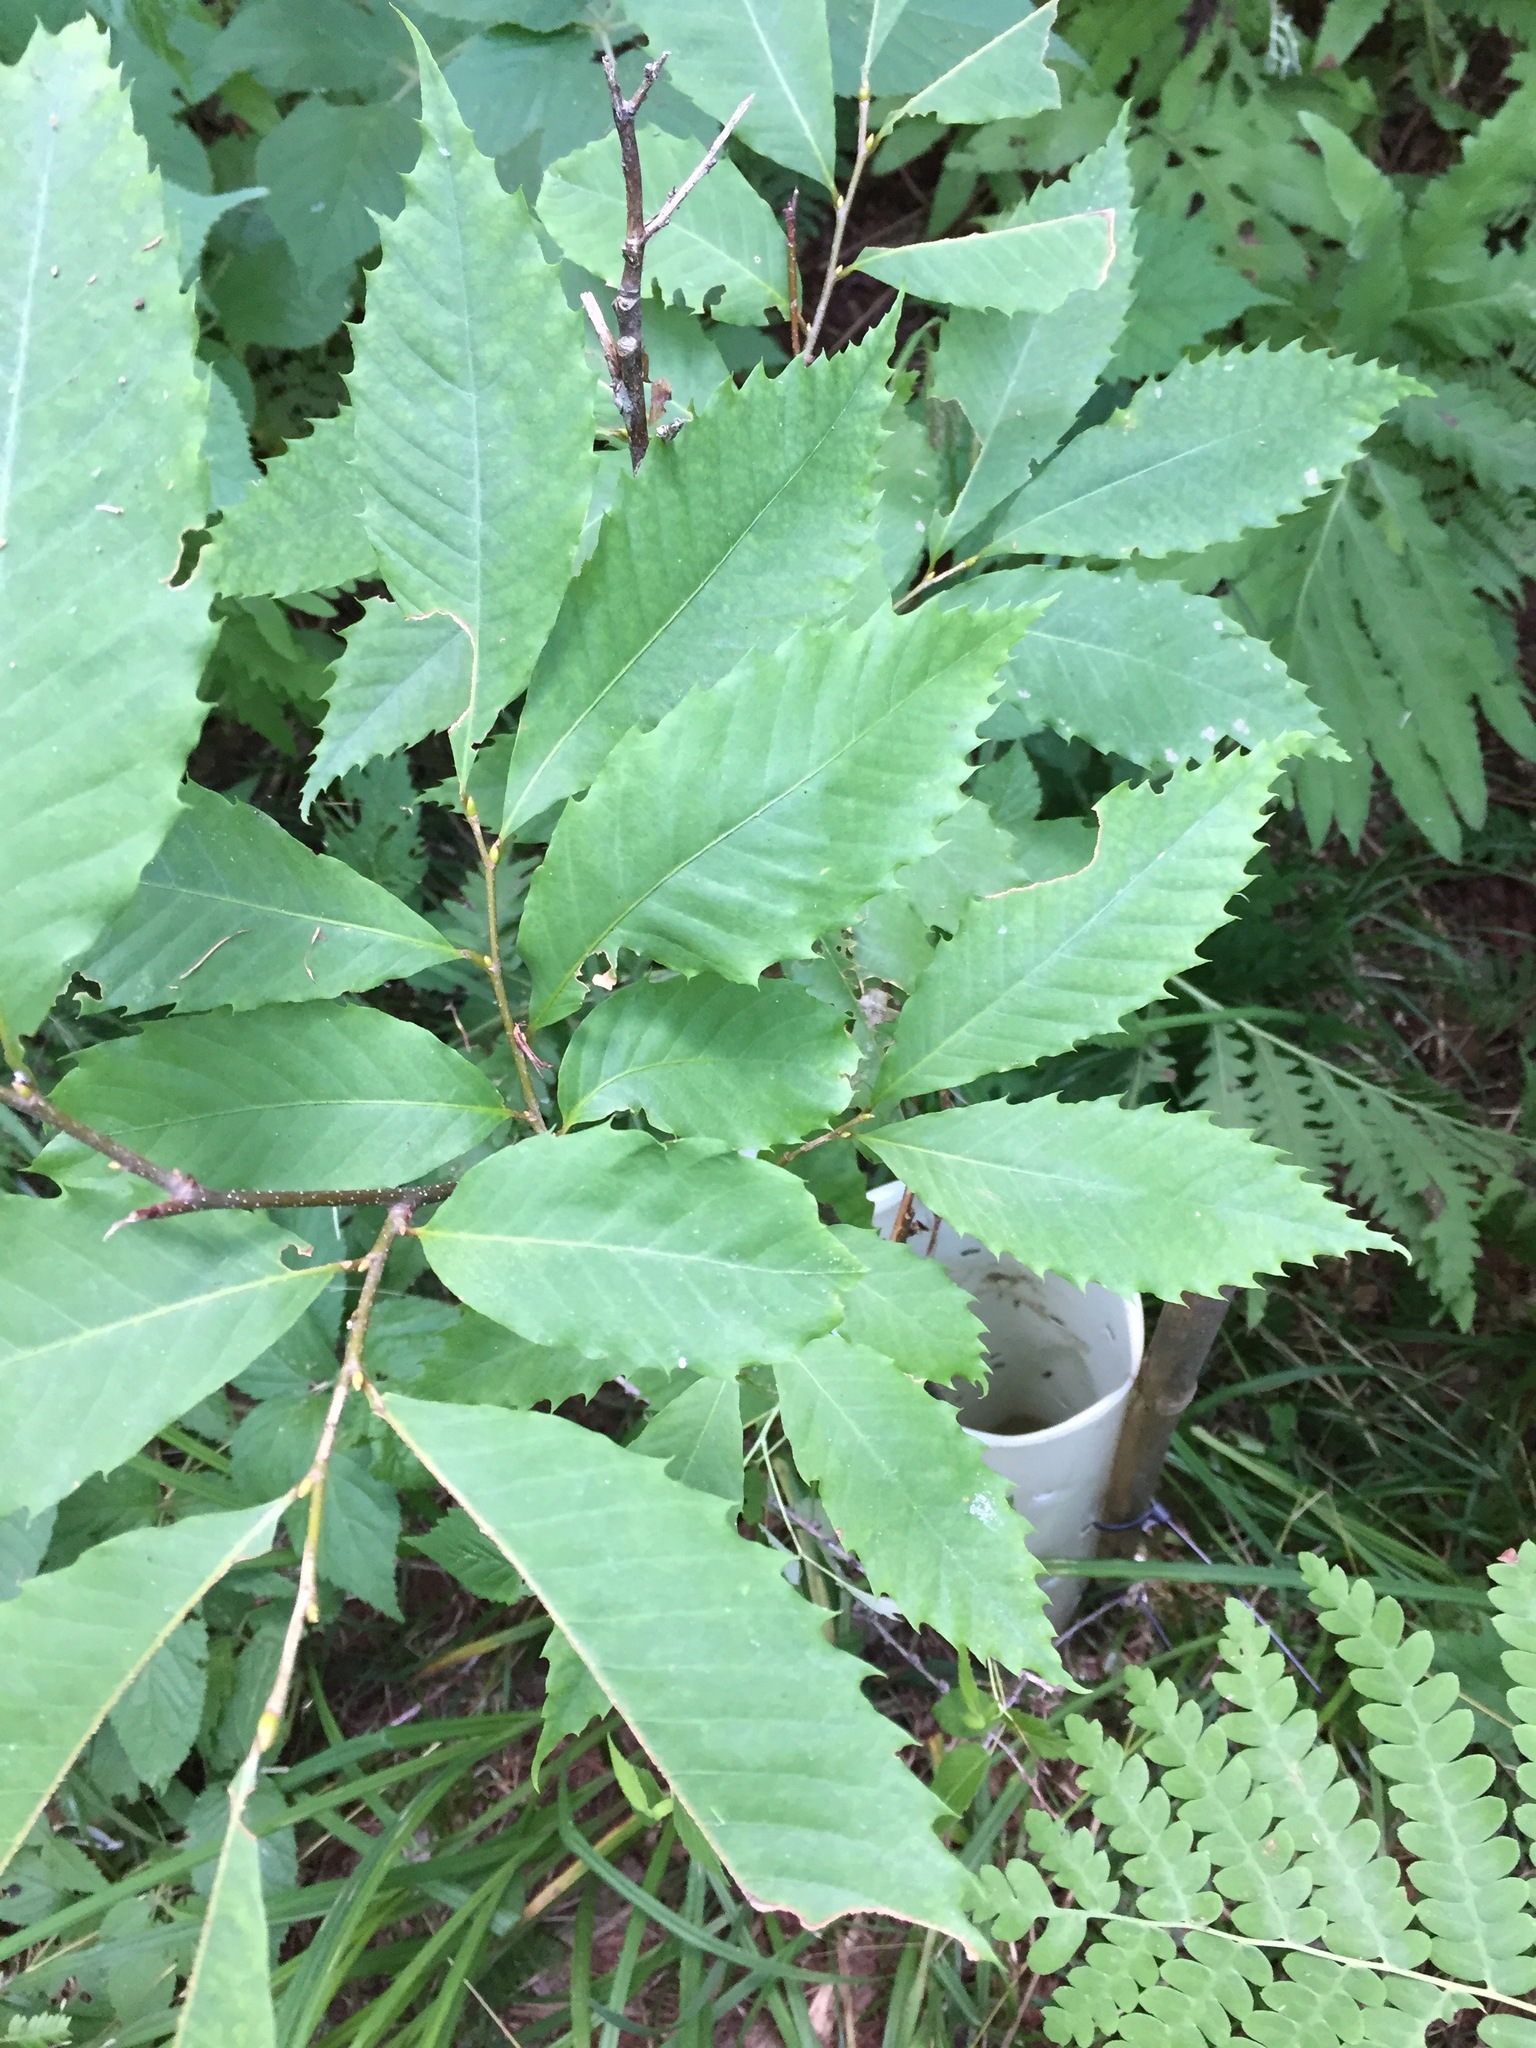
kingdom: Plantae
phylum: Tracheophyta
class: Magnoliopsida
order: Fagales
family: Fagaceae
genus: Castanea
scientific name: Castanea dentata
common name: American chestnut
